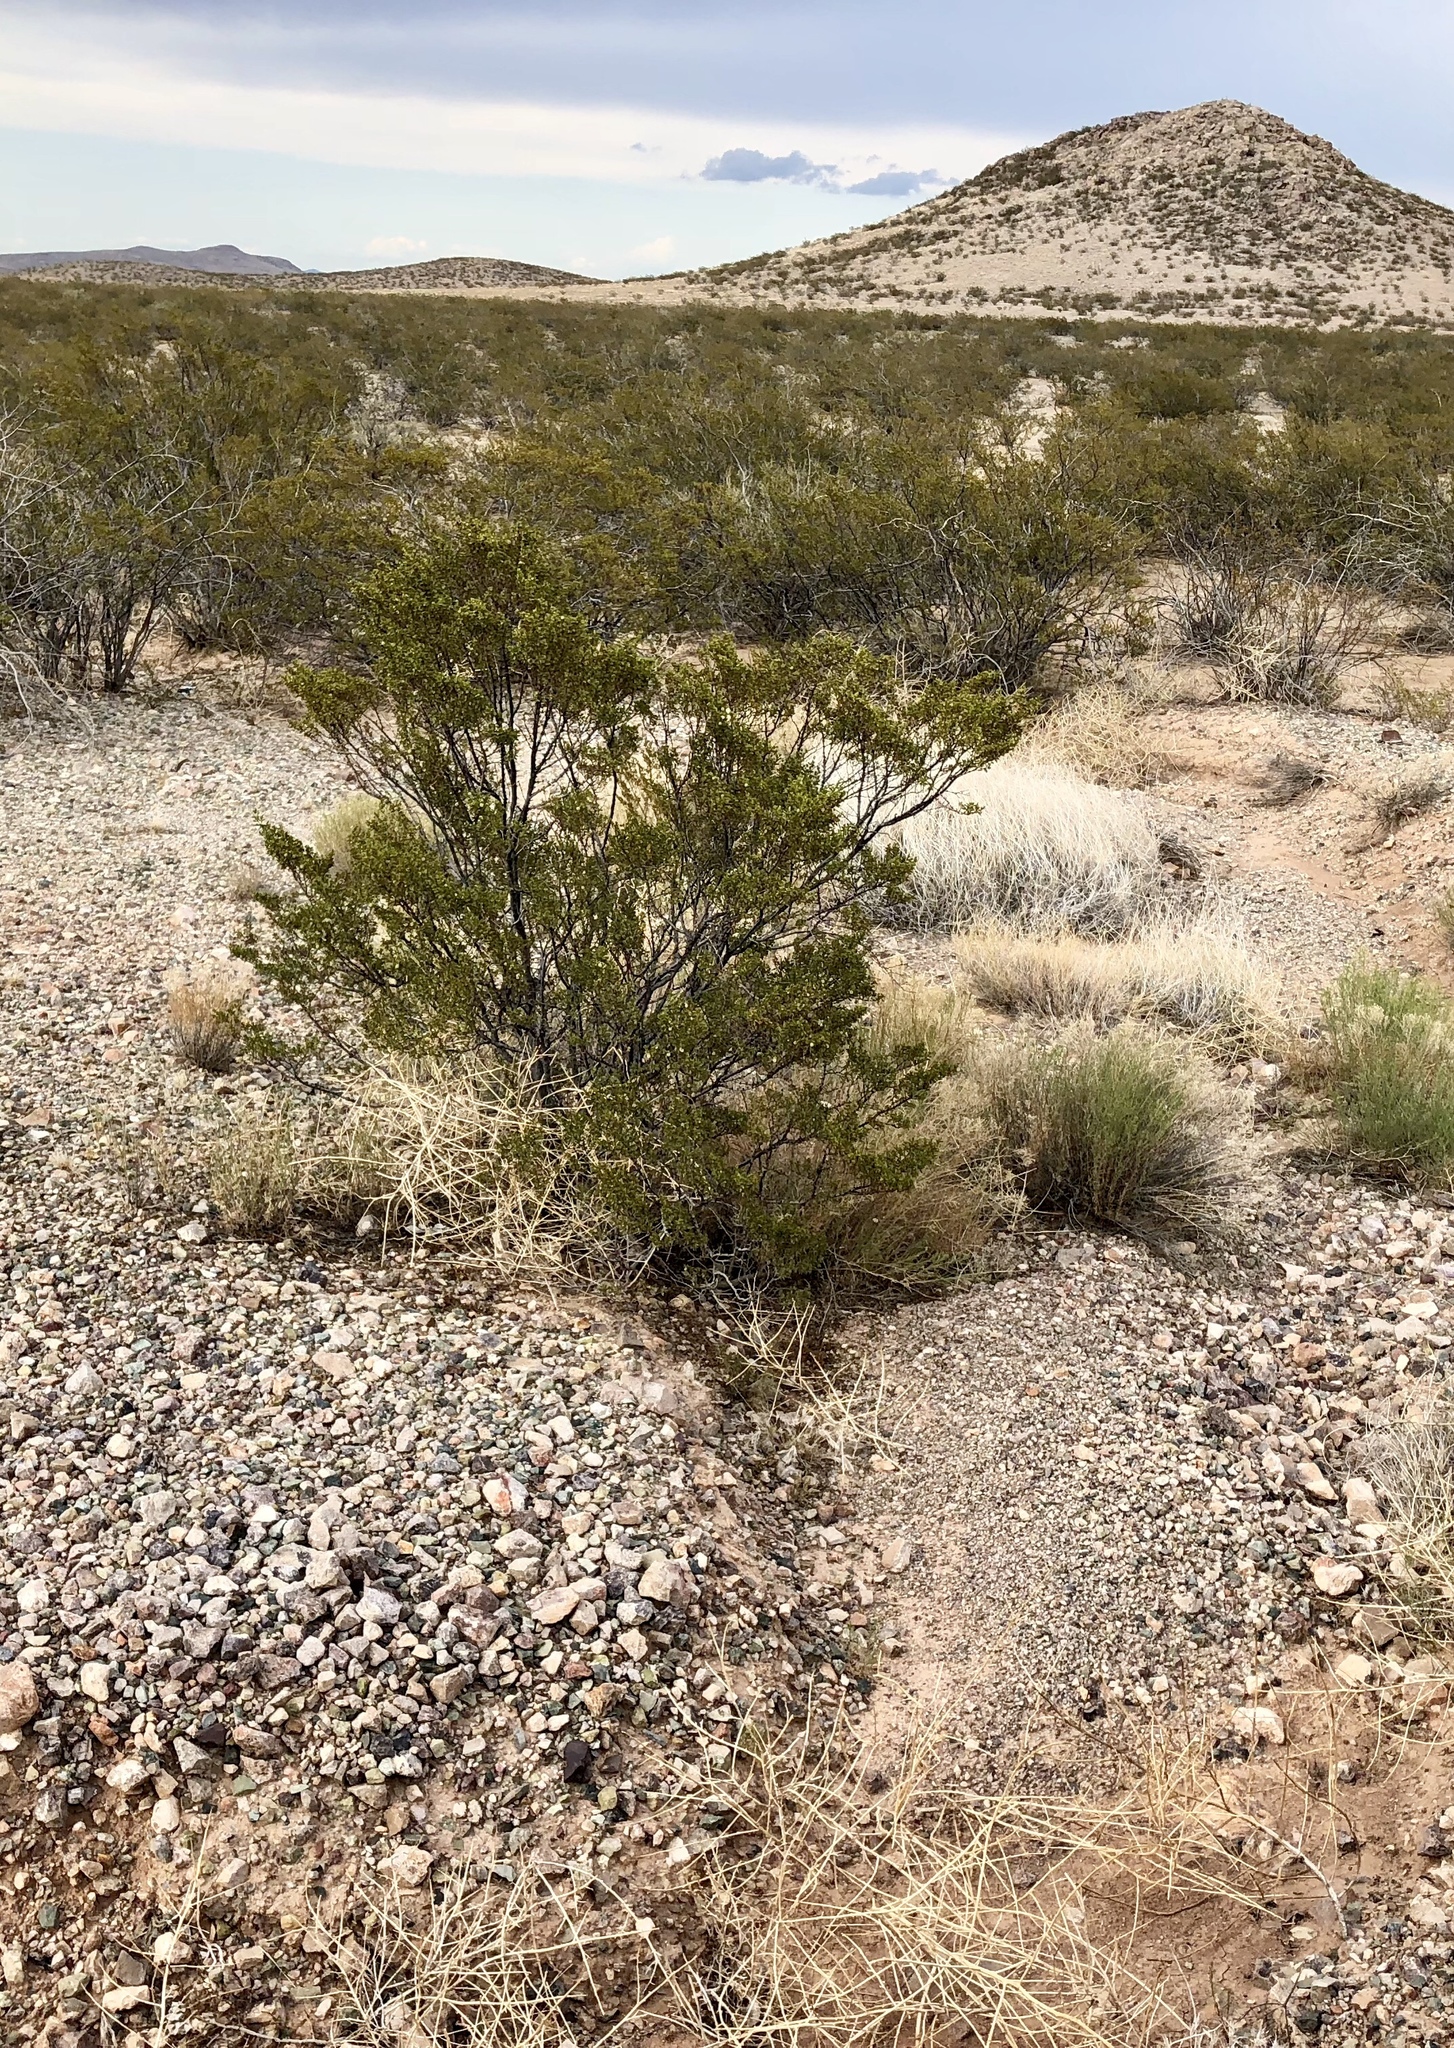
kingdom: Plantae
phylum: Tracheophyta
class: Magnoliopsida
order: Zygophyllales
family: Zygophyllaceae
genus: Larrea
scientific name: Larrea tridentata
